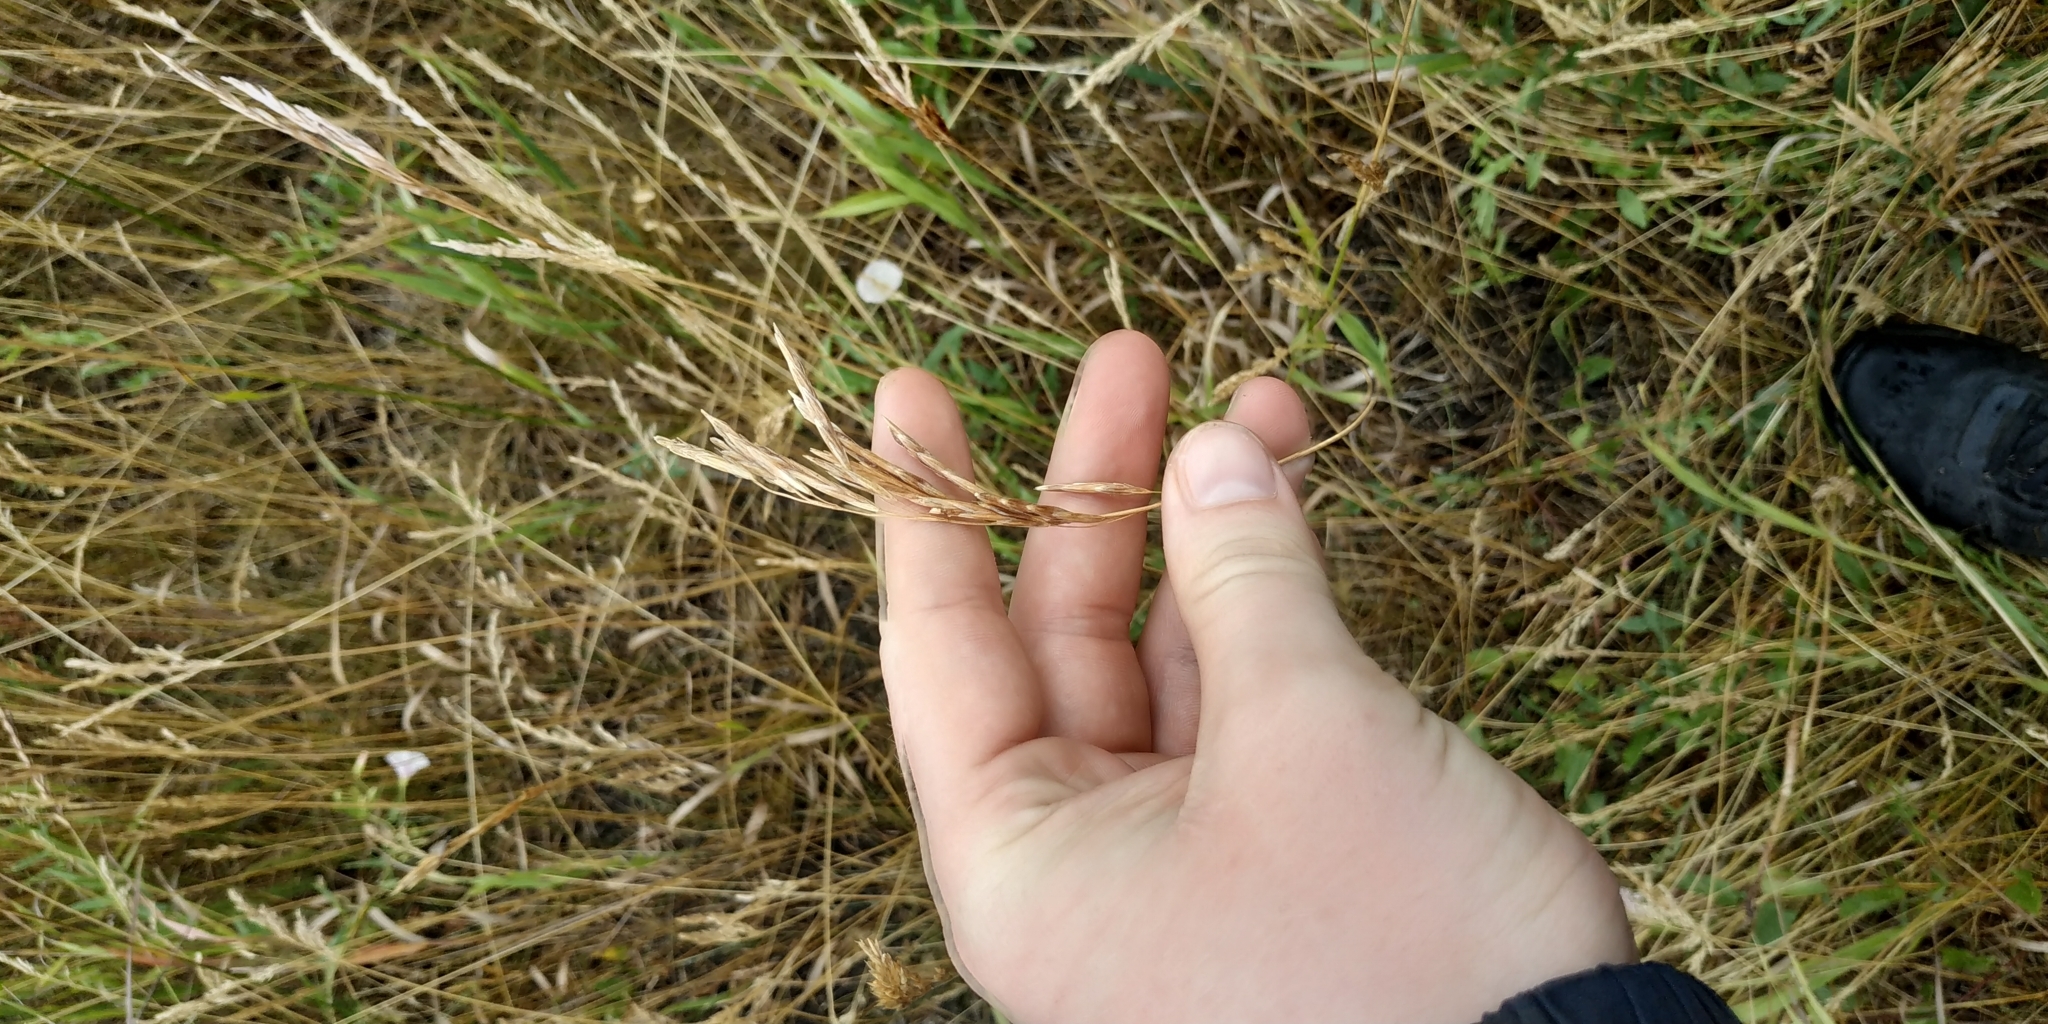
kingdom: Plantae
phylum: Tracheophyta
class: Liliopsida
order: Poales
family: Poaceae
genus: Bromus
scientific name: Bromus inermis
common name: Smooth brome
